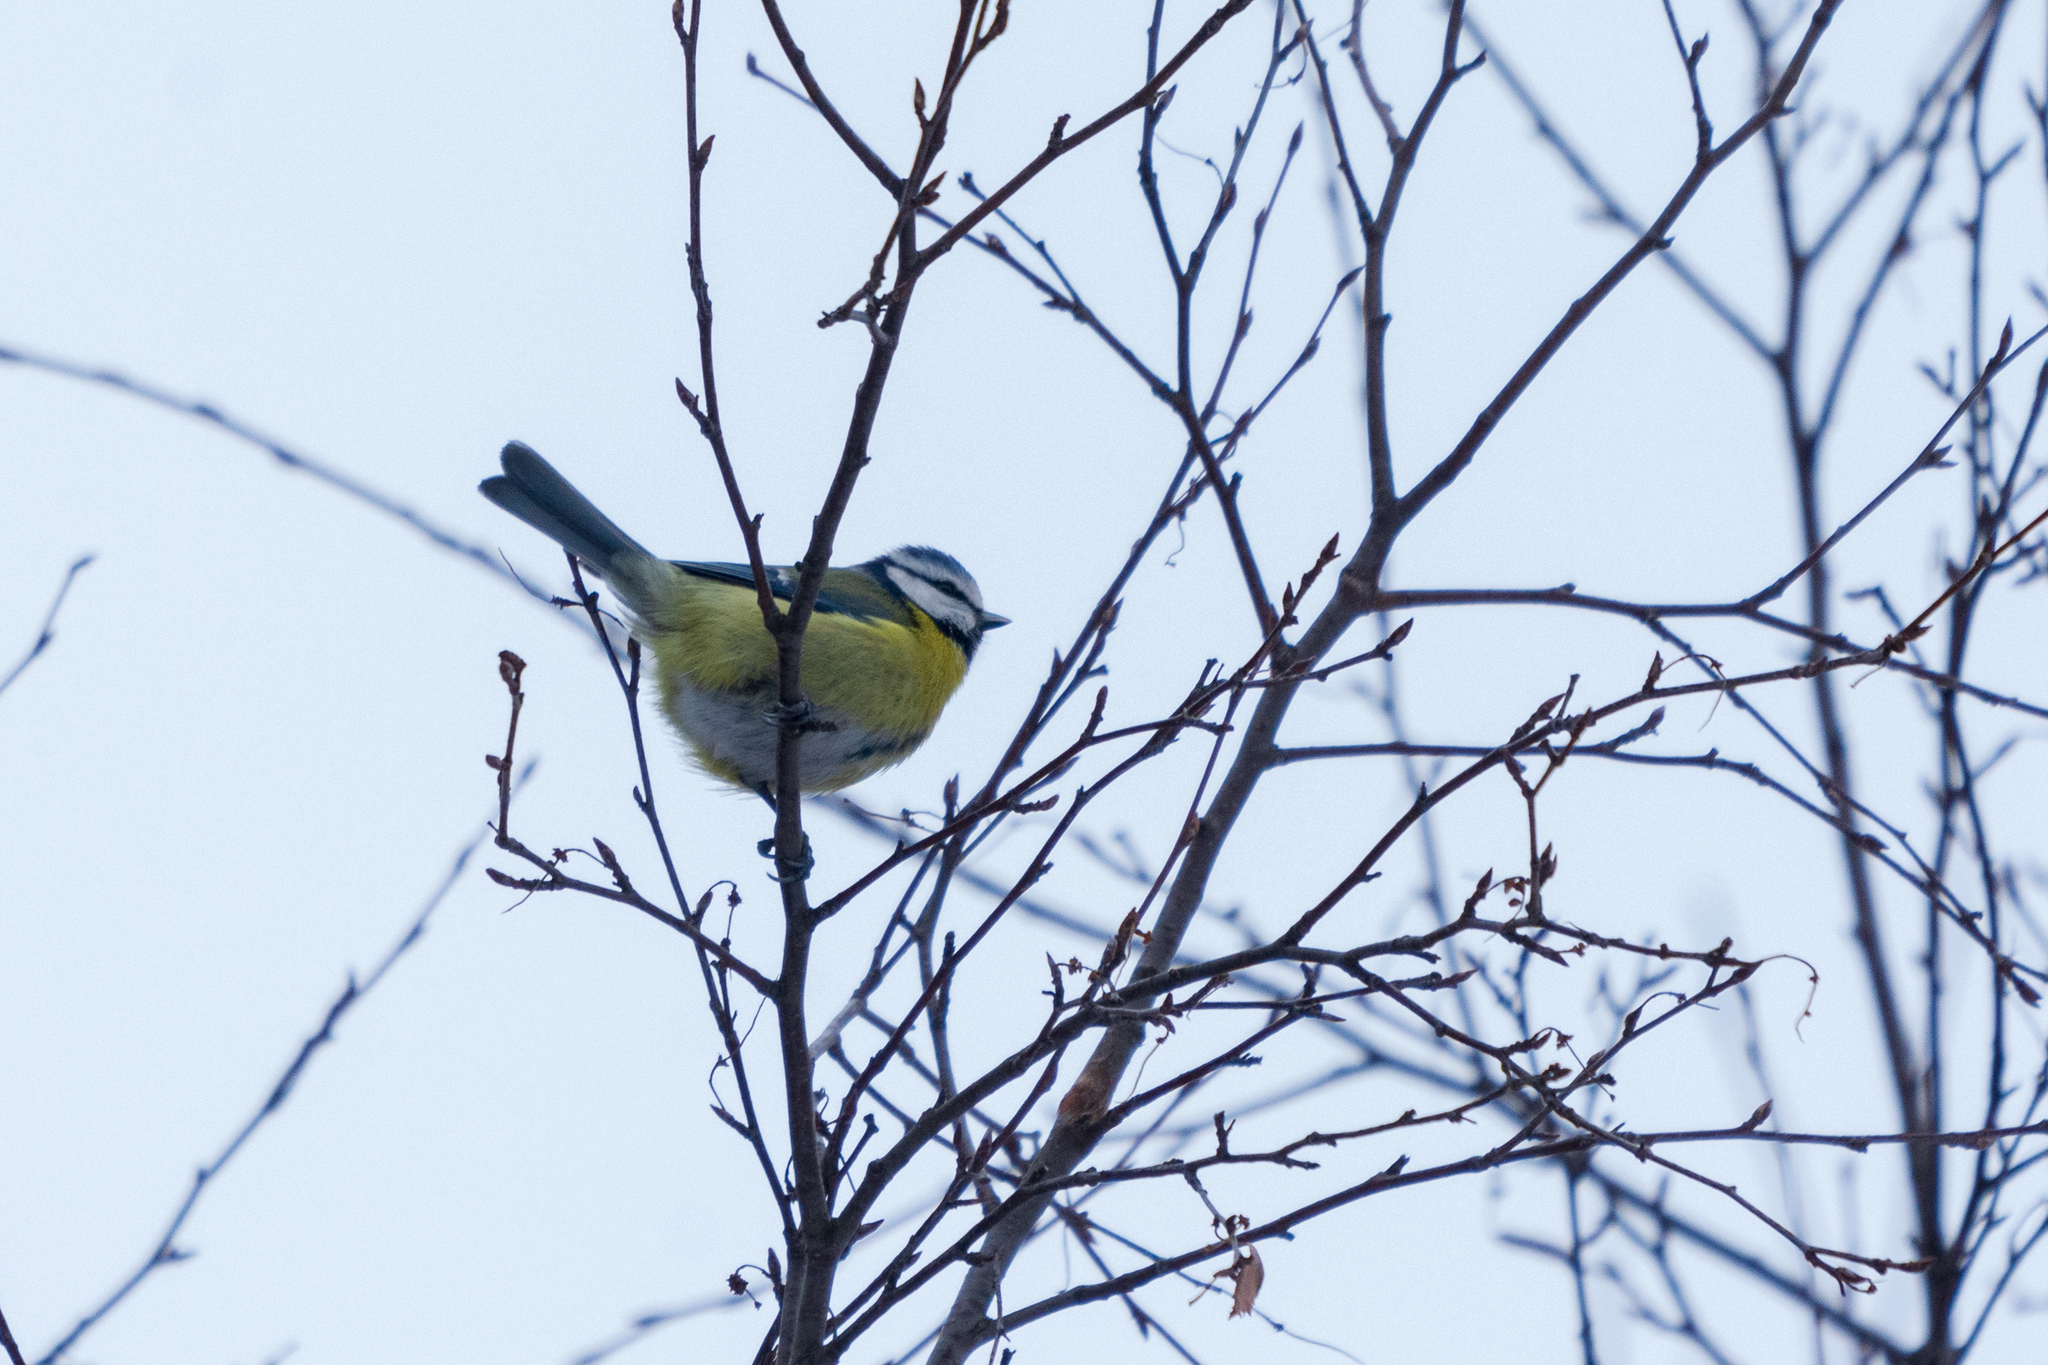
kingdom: Animalia
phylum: Chordata
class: Aves
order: Passeriformes
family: Paridae
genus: Cyanistes
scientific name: Cyanistes caeruleus
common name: Eurasian blue tit
